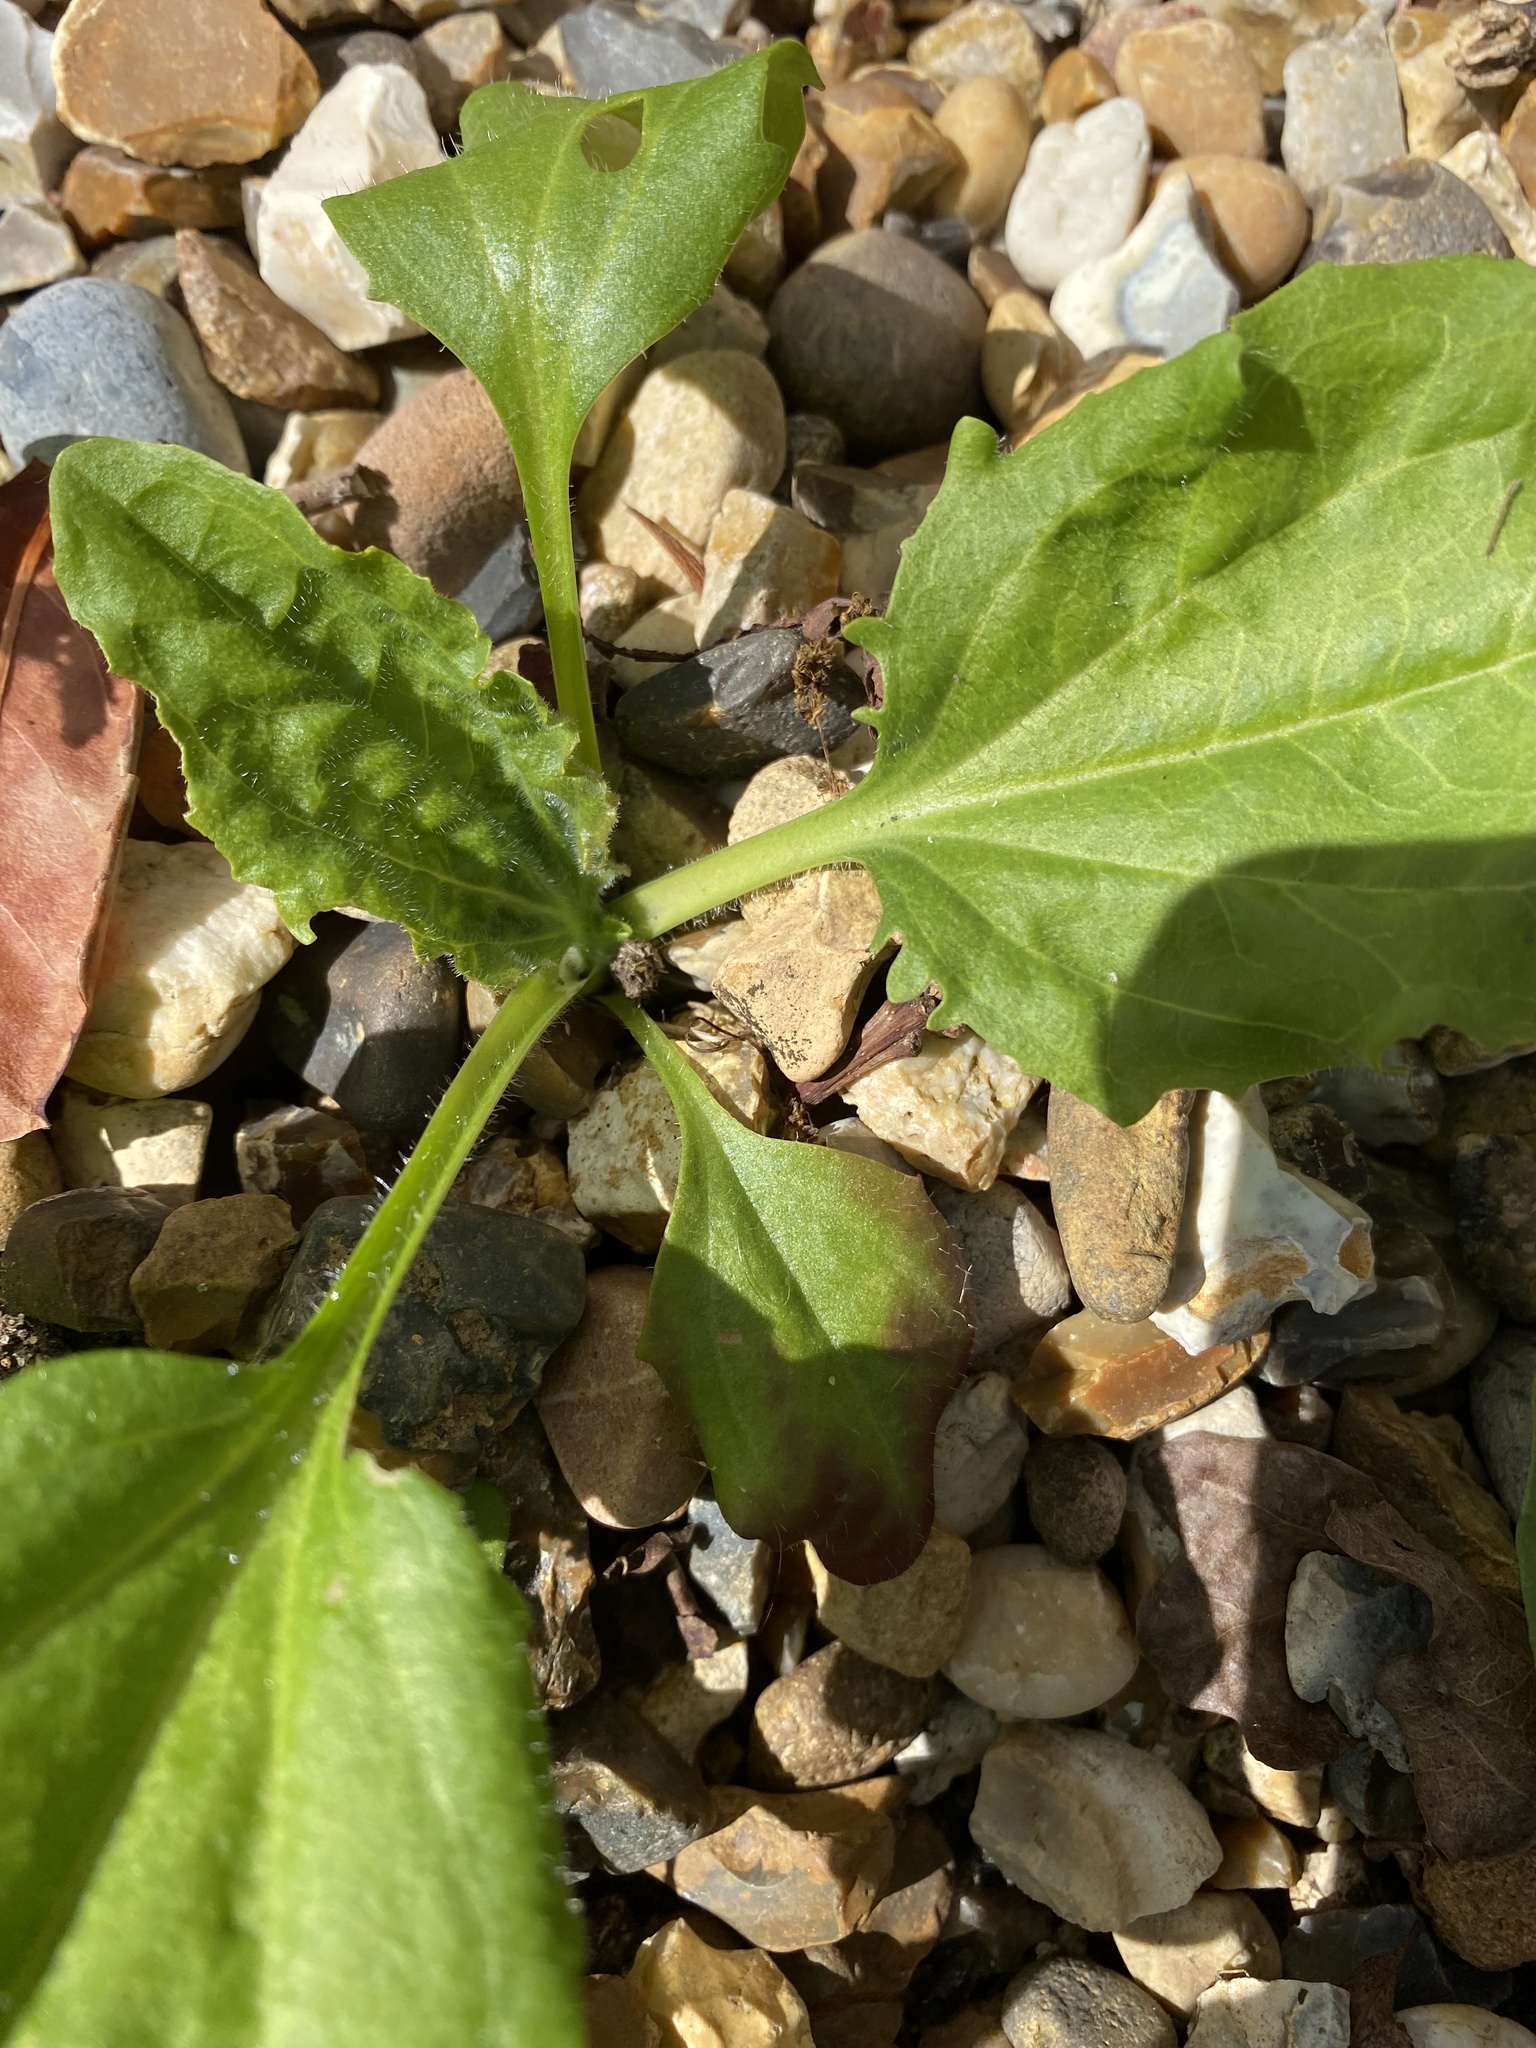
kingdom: Plantae
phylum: Tracheophyta
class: Magnoliopsida
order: Lamiales
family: Plantaginaceae
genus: Plantago
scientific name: Plantago major
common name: Common plantain
